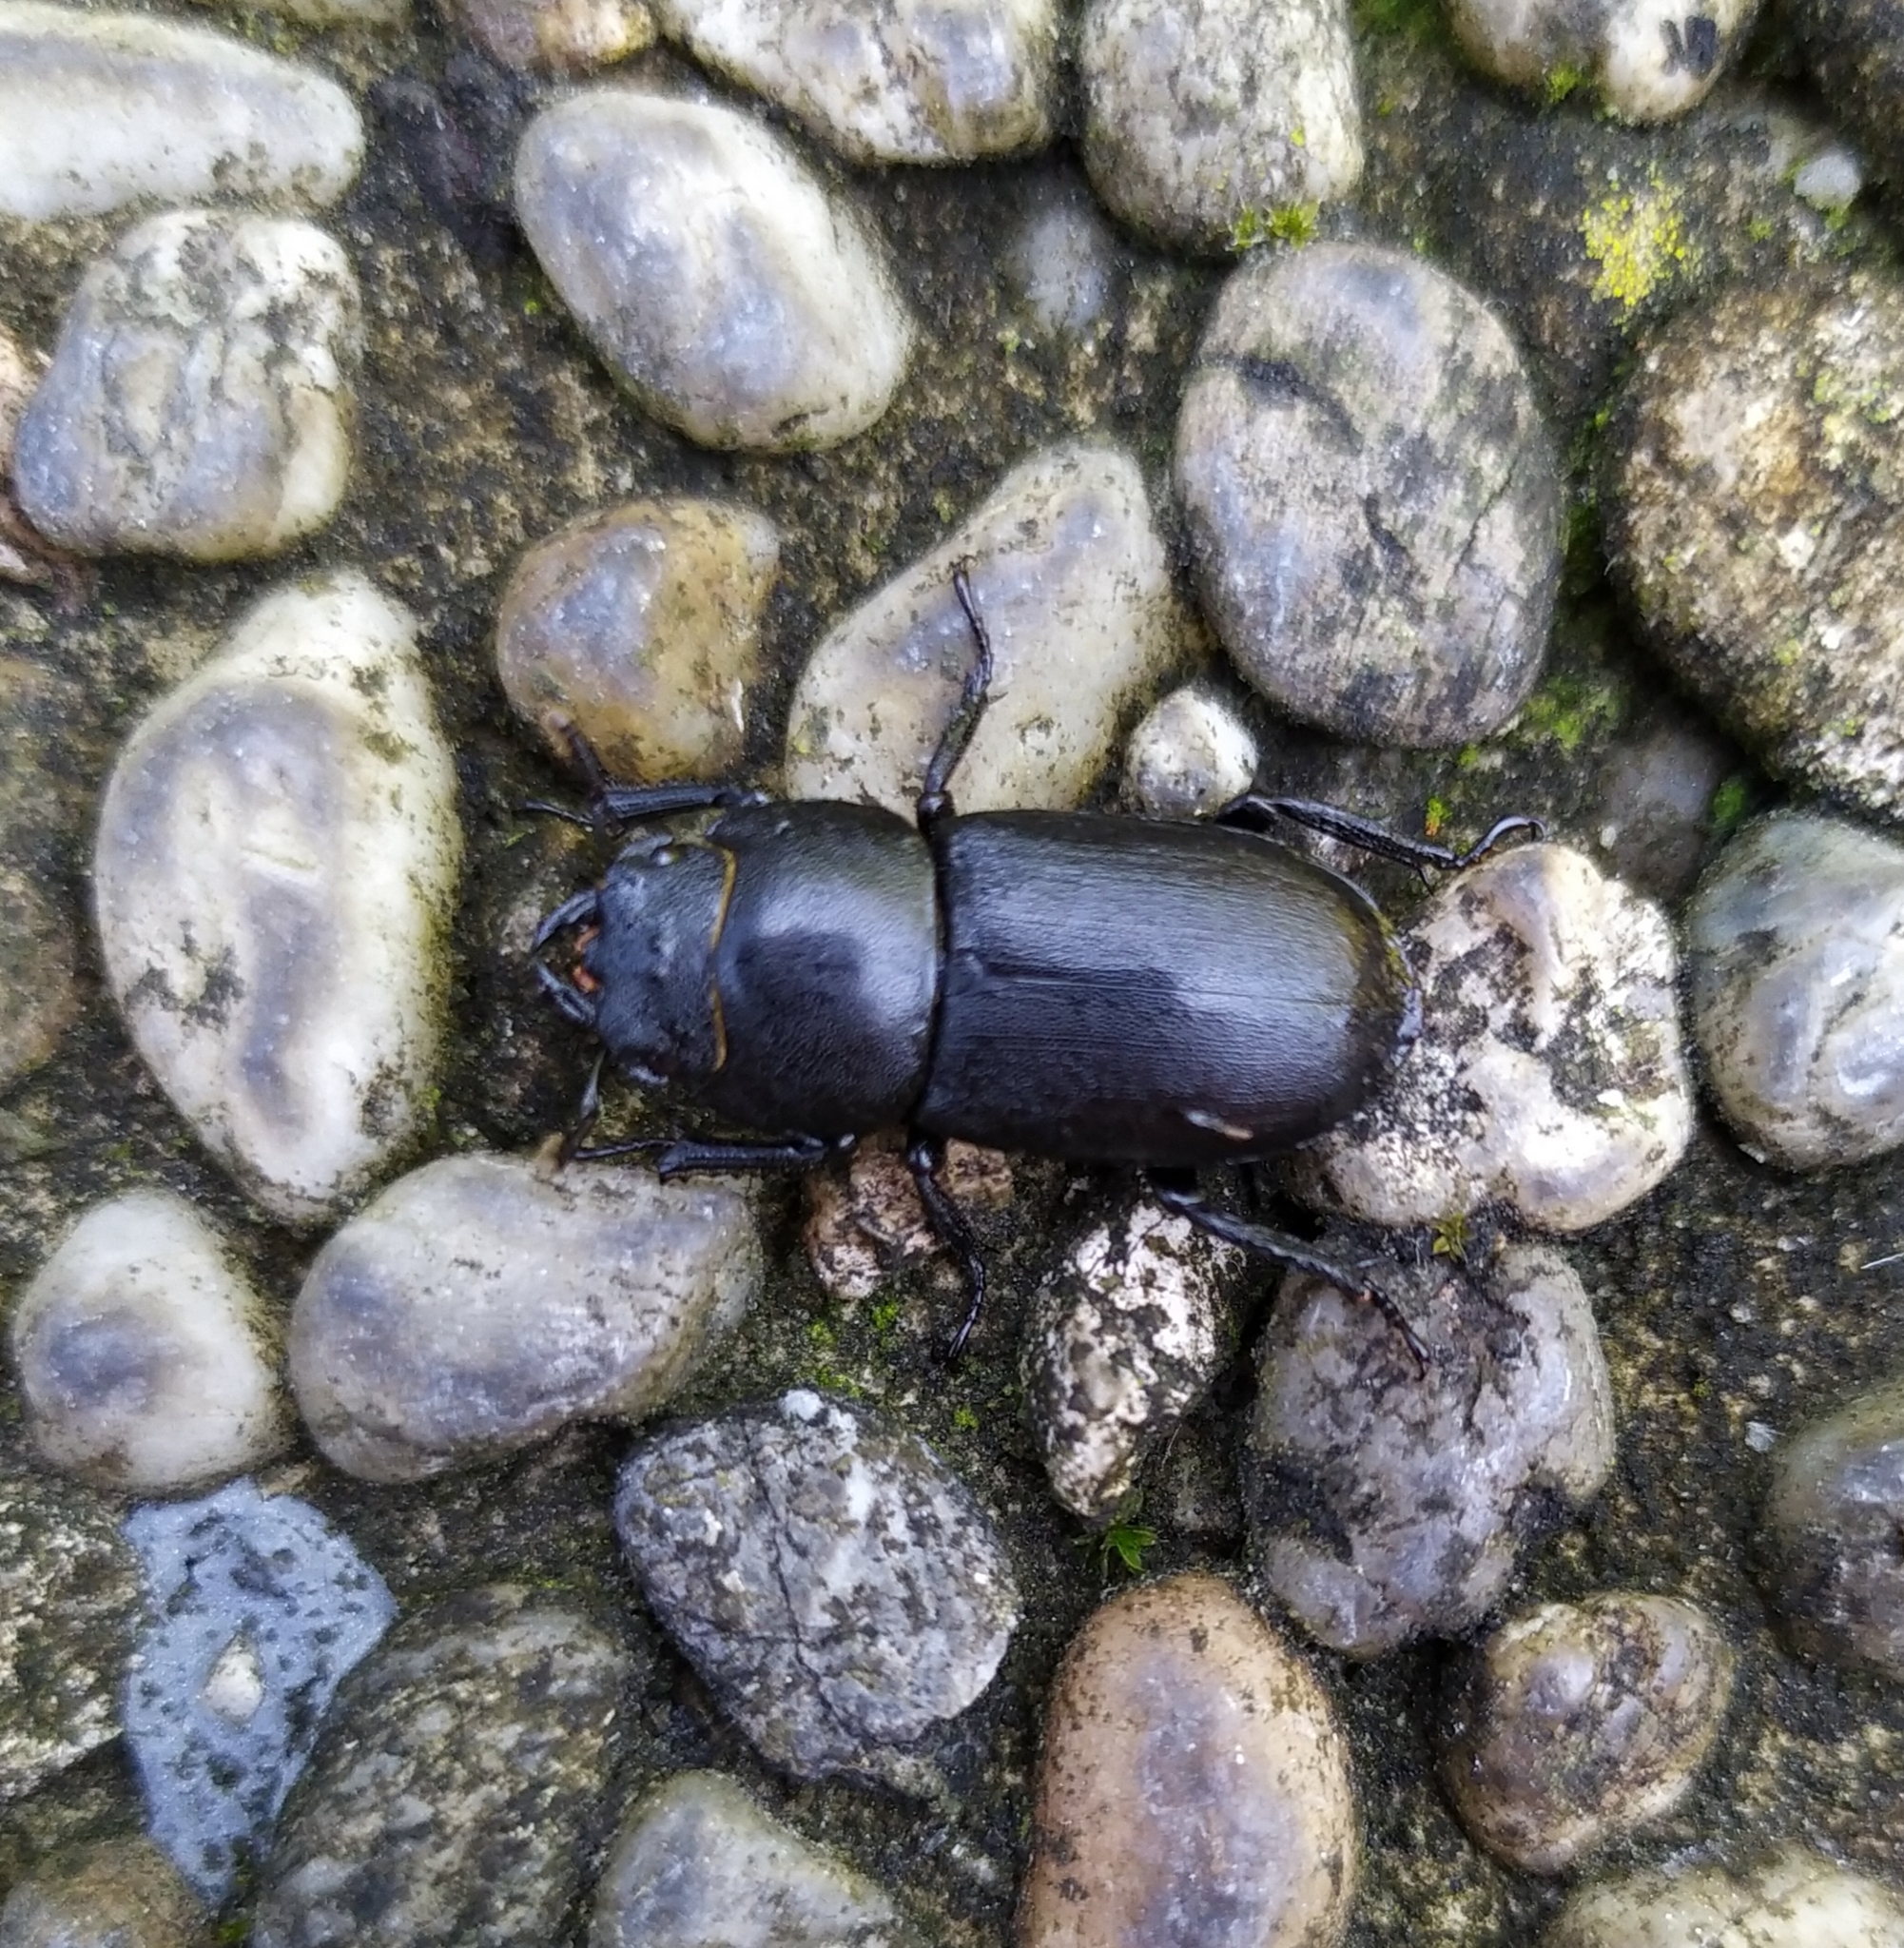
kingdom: Animalia
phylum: Arthropoda
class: Insecta
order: Coleoptera
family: Lucanidae
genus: Dorcus
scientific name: Dorcus parallelipipedus
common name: Lesser stag beetle
